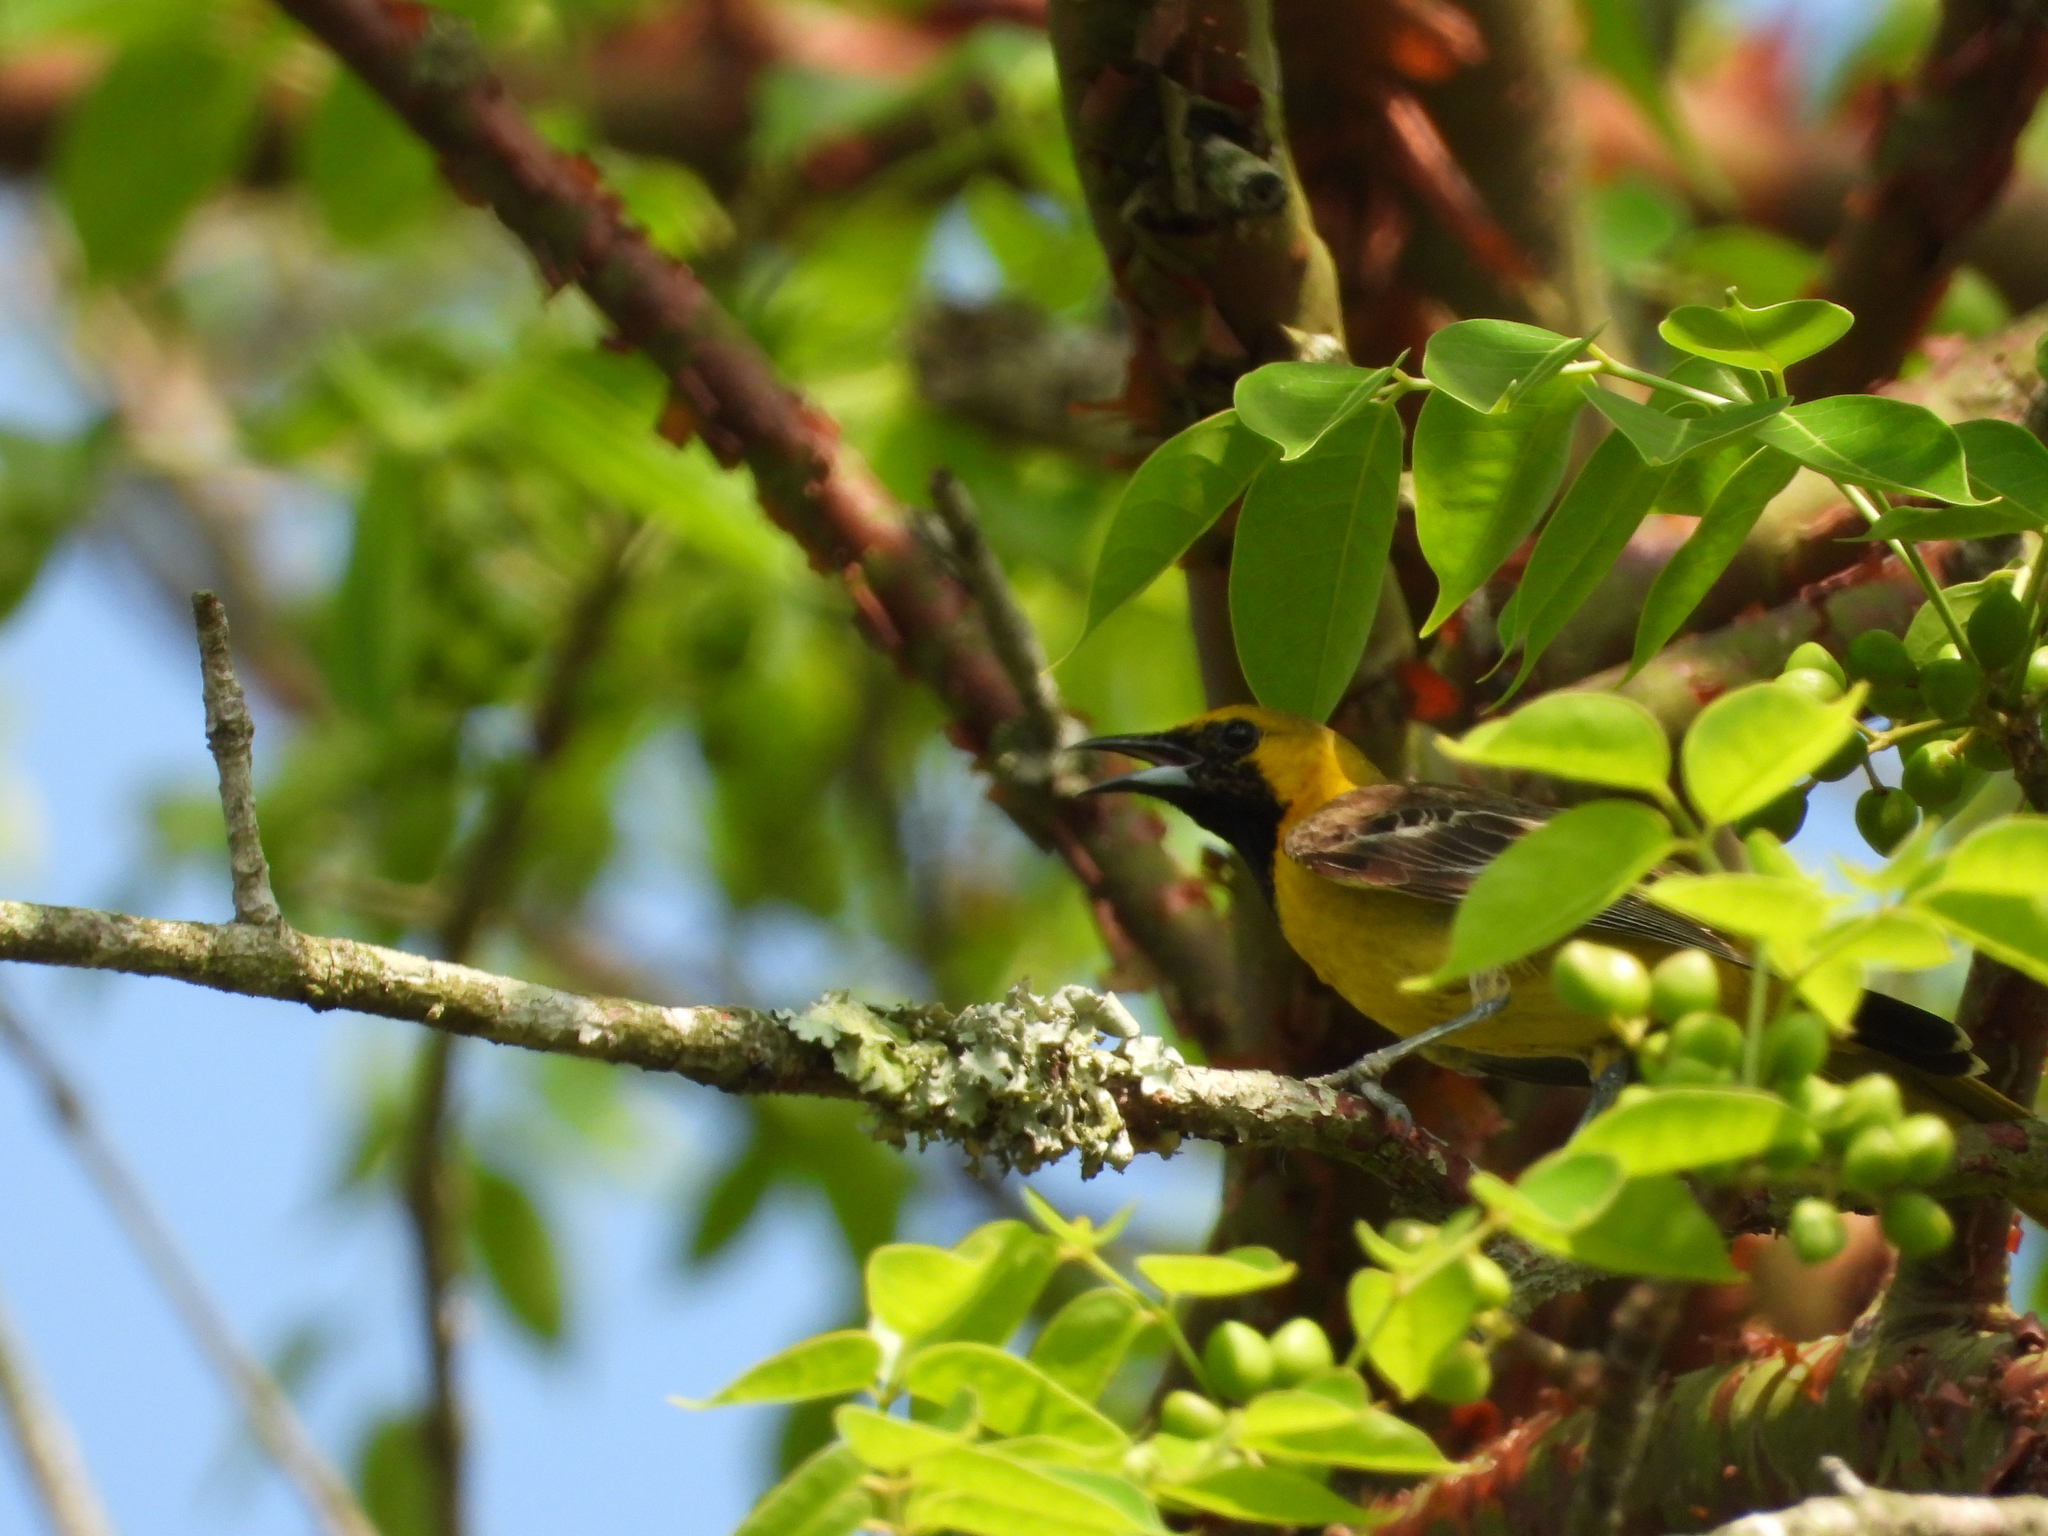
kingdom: Animalia
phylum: Chordata
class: Aves
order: Passeriformes
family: Icteridae
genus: Icterus
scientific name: Icterus cucullatus
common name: Hooded oriole
